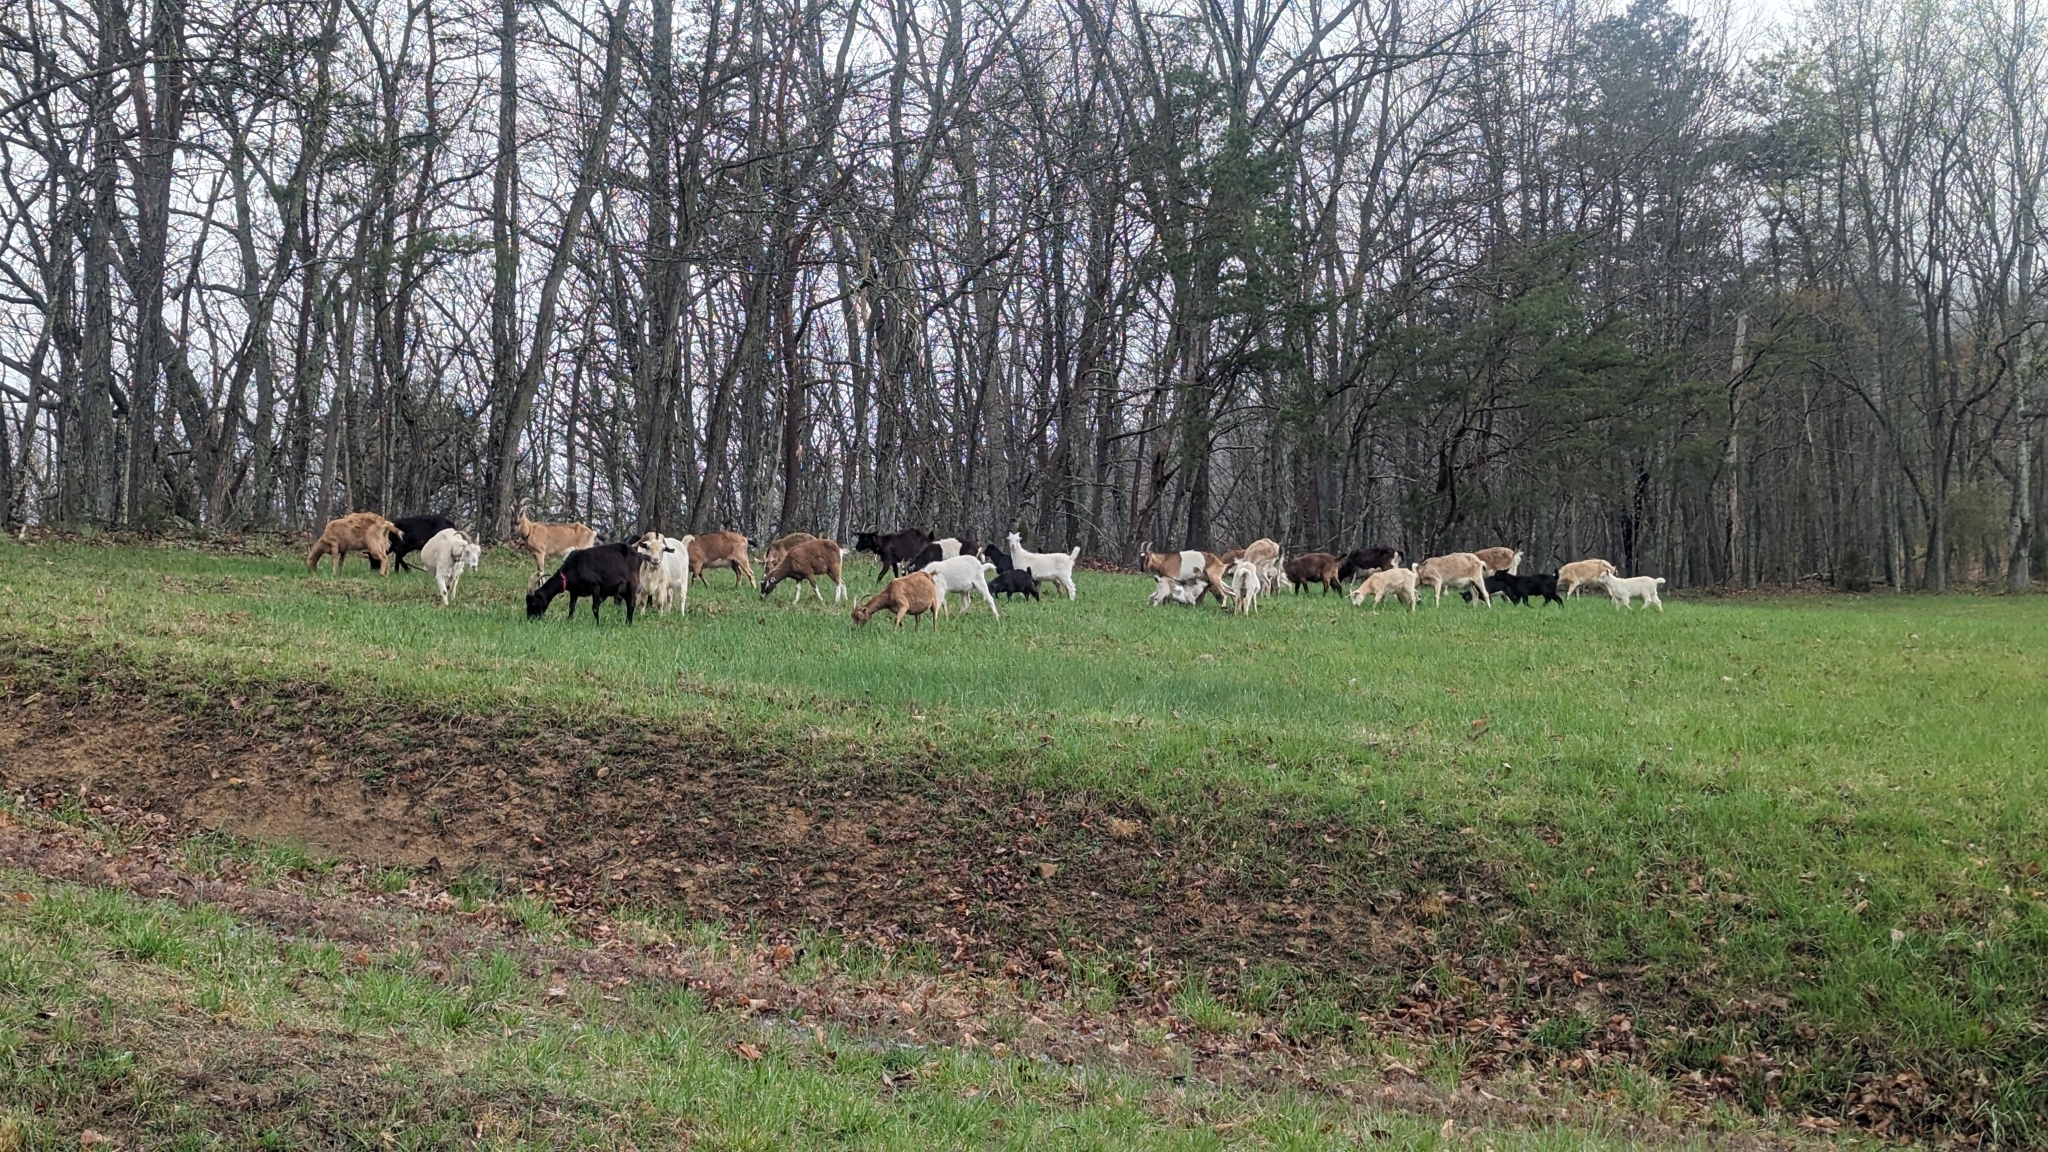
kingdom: Animalia
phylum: Chordata
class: Mammalia
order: Artiodactyla
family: Bovidae
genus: Capra
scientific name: Capra hircus
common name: Domestic goat
